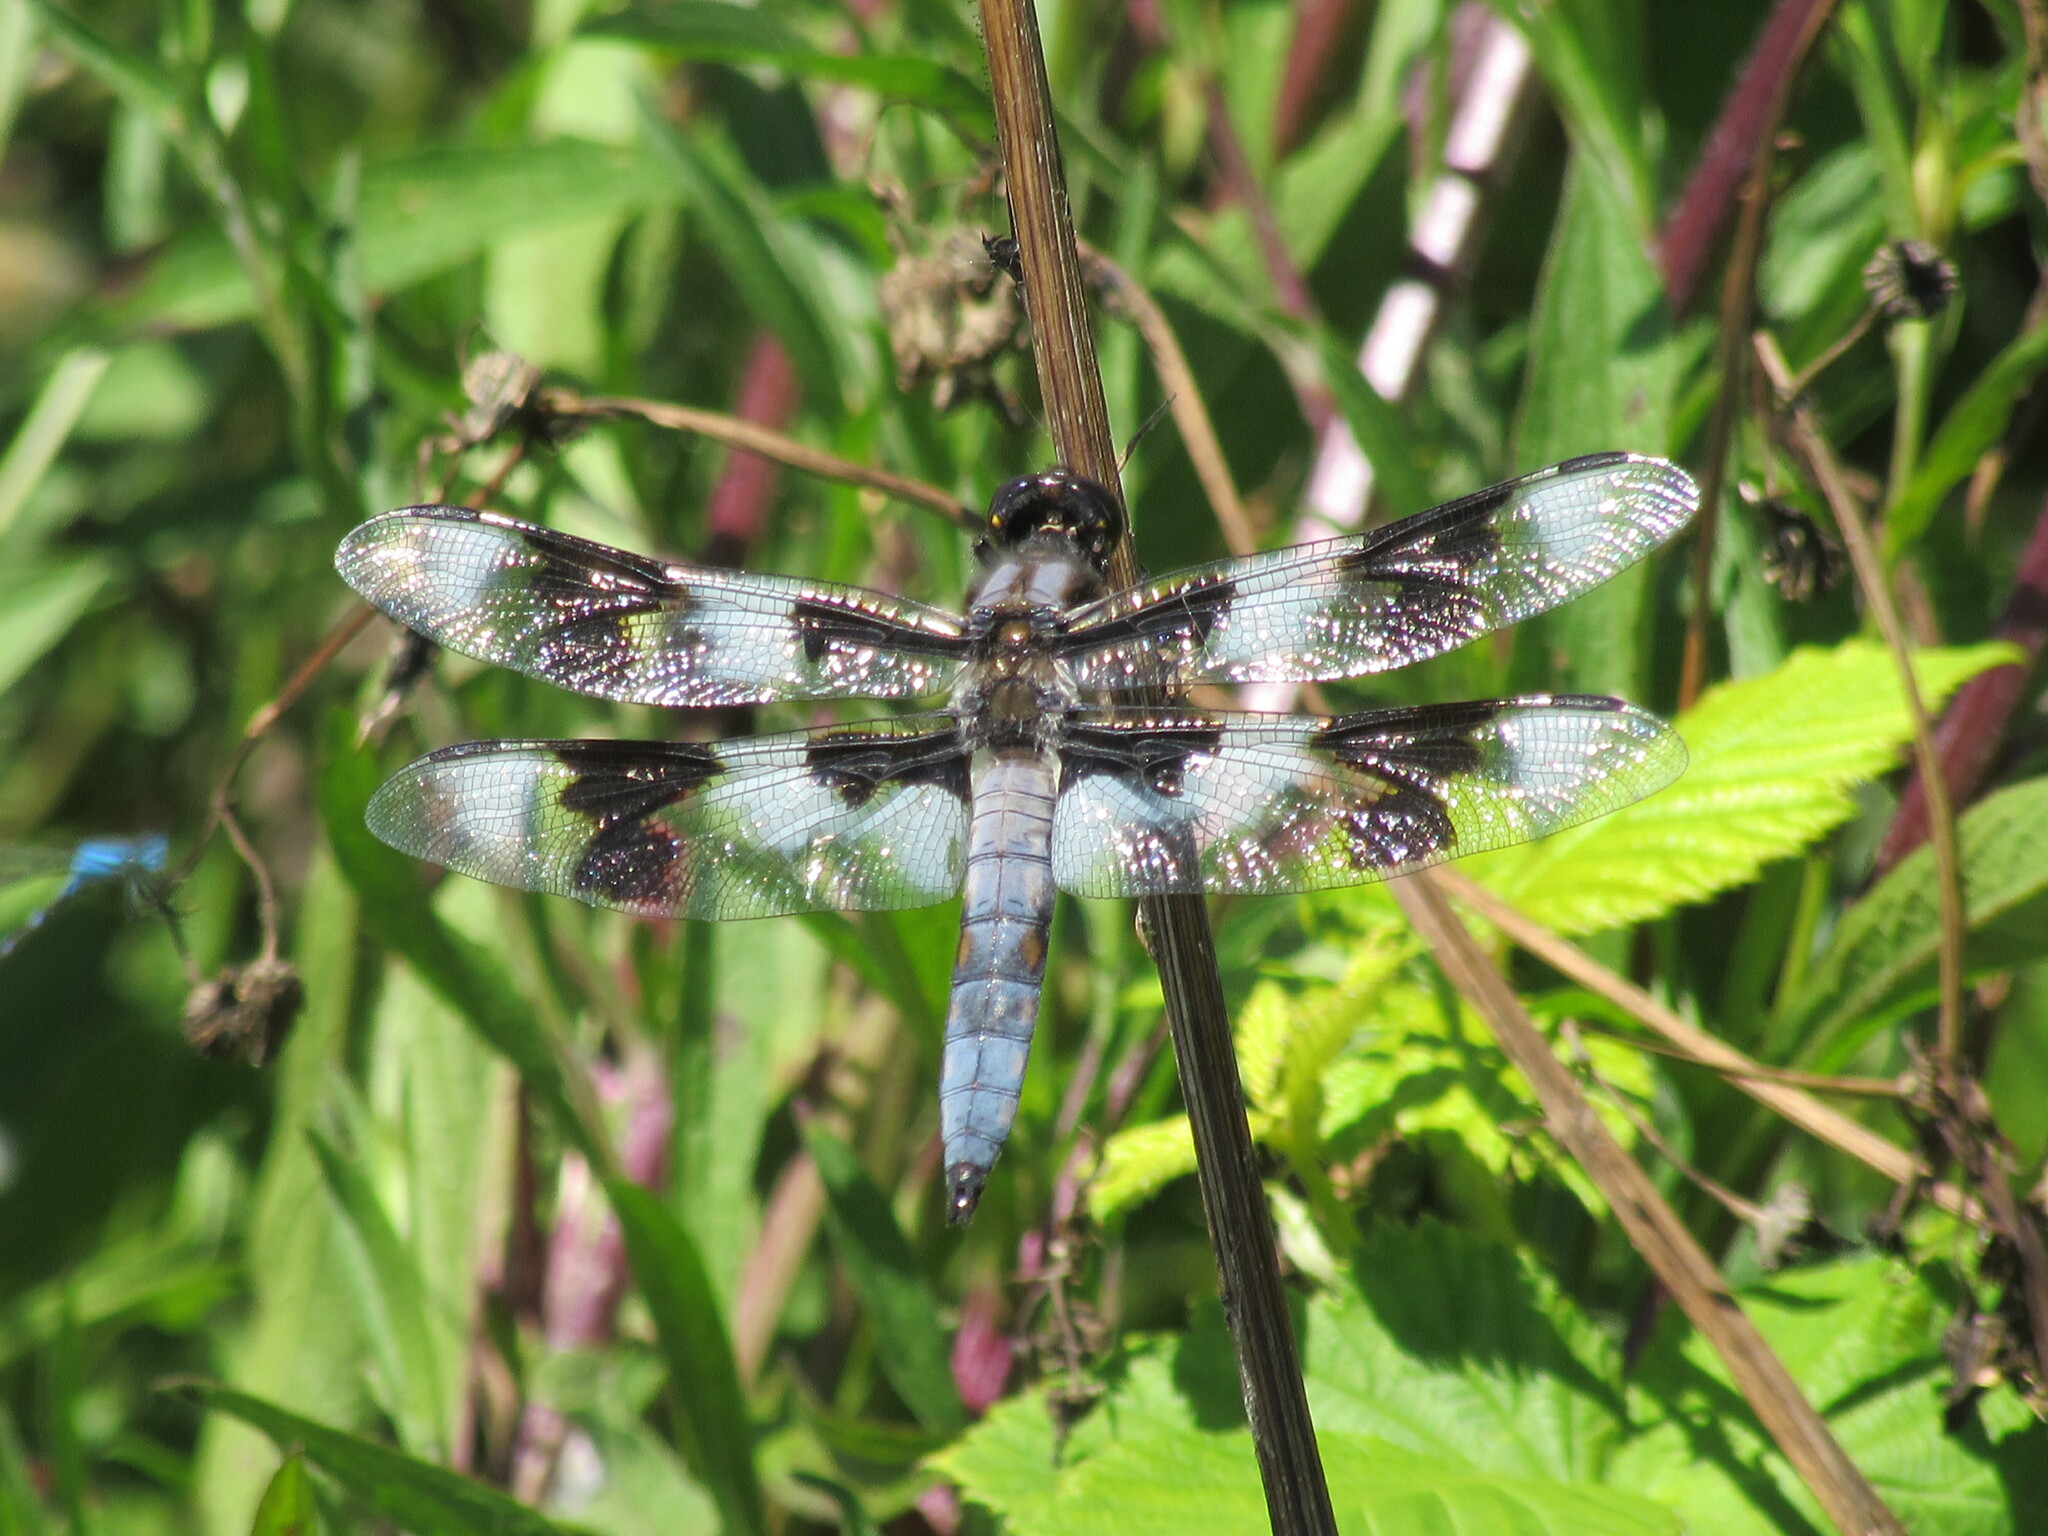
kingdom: Animalia
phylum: Arthropoda
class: Insecta
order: Odonata
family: Libellulidae
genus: Libellula
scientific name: Libellula forensis
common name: Eight-spotted skimmer
